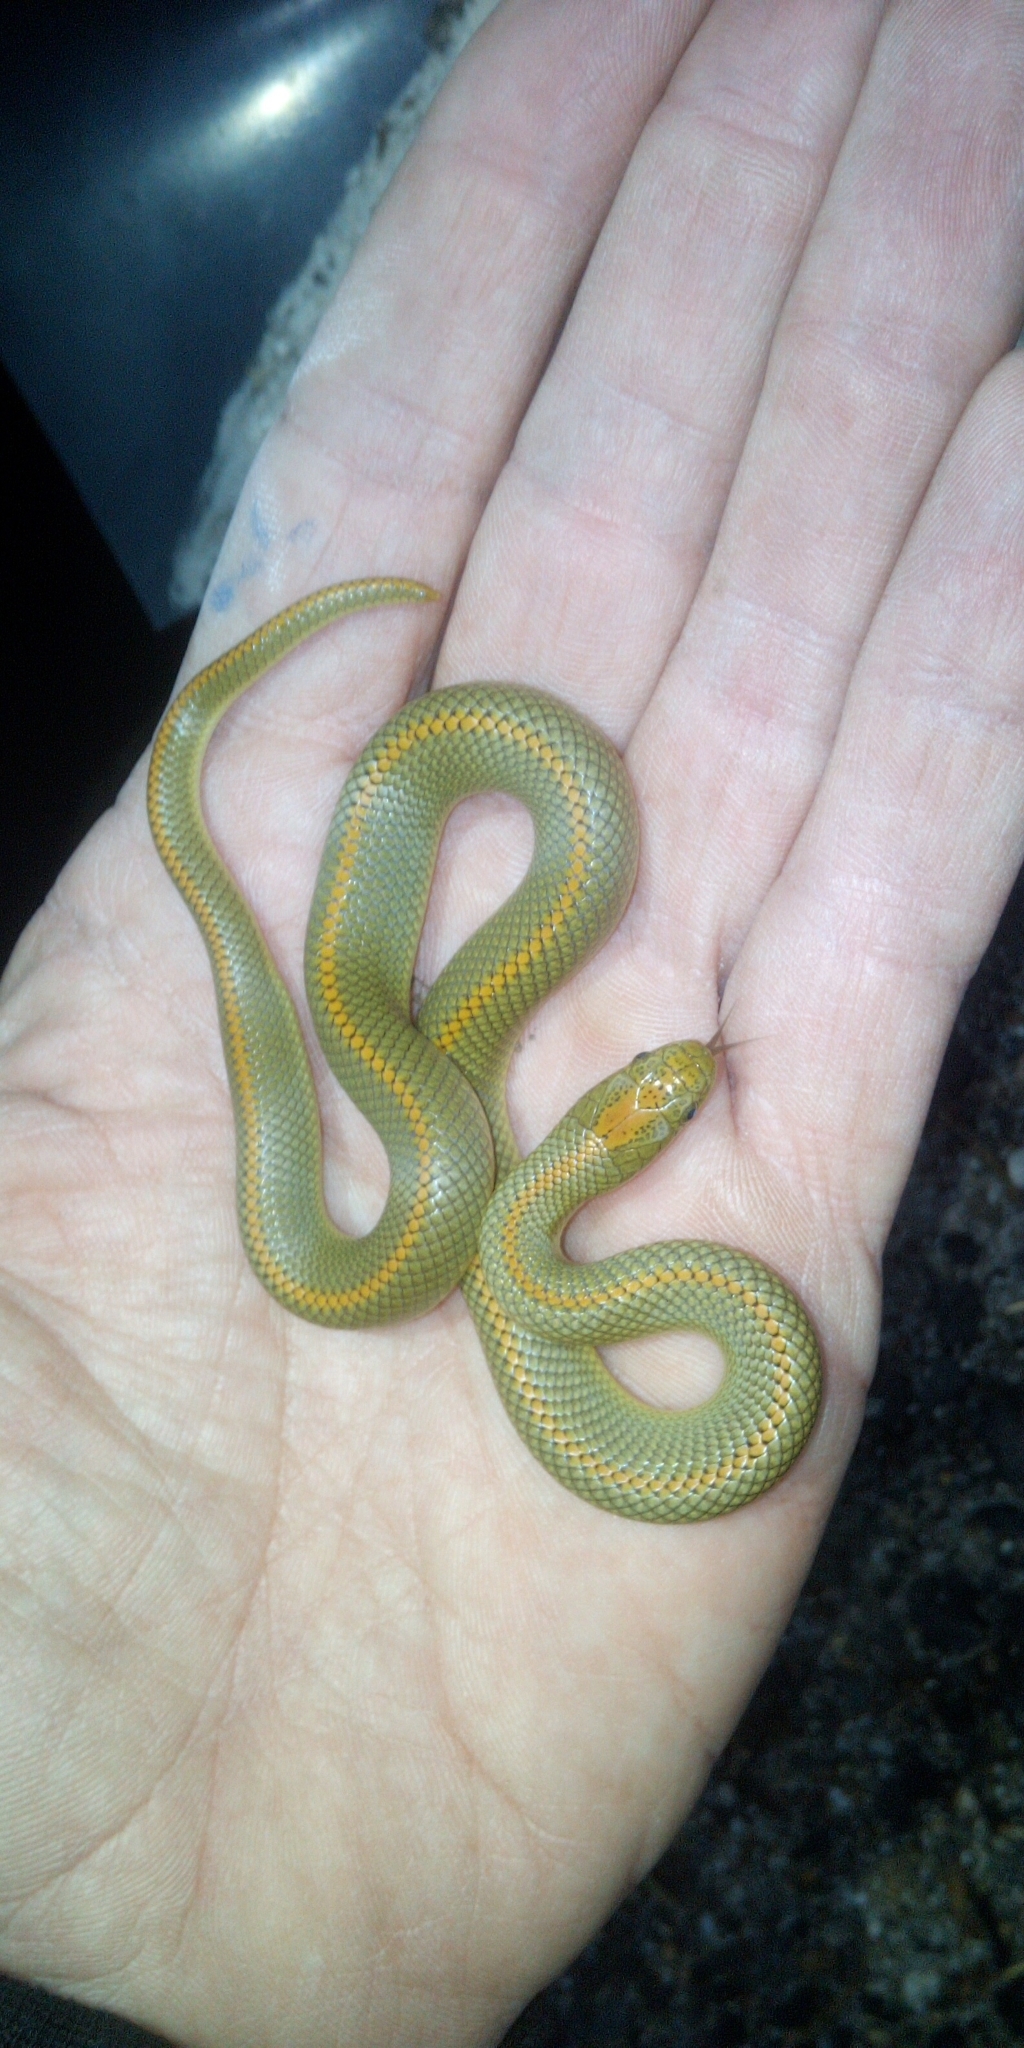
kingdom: Animalia
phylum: Chordata
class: Squamata
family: Lamprophiidae
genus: Lamprophis
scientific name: Lamprophis aurora
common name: Aurora house snake
